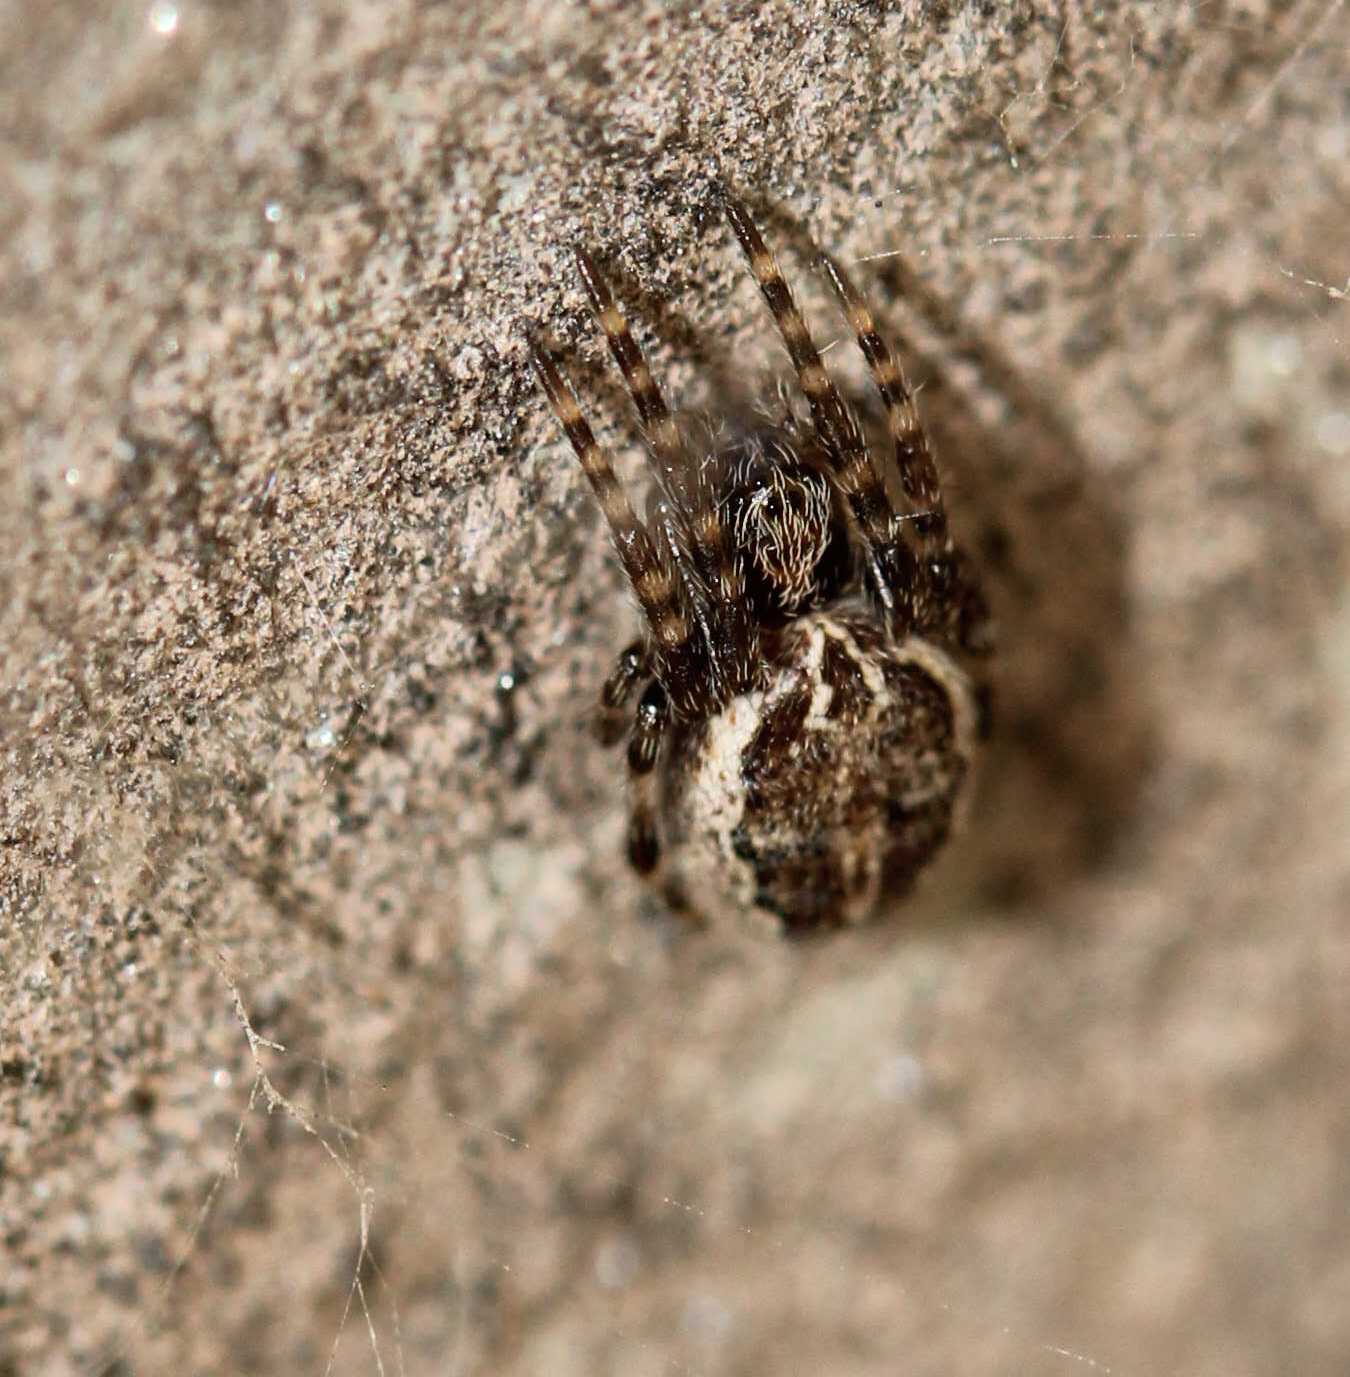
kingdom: Animalia
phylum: Arthropoda
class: Arachnida
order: Araneae
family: Araneidae
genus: Larinioides
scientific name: Larinioides
